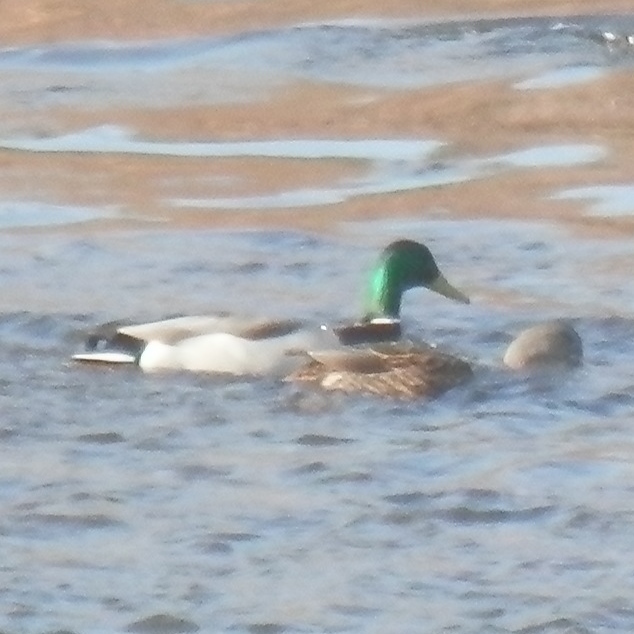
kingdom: Animalia
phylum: Chordata
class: Aves
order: Anseriformes
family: Anatidae
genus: Anas
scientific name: Anas platyrhynchos
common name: Mallard
